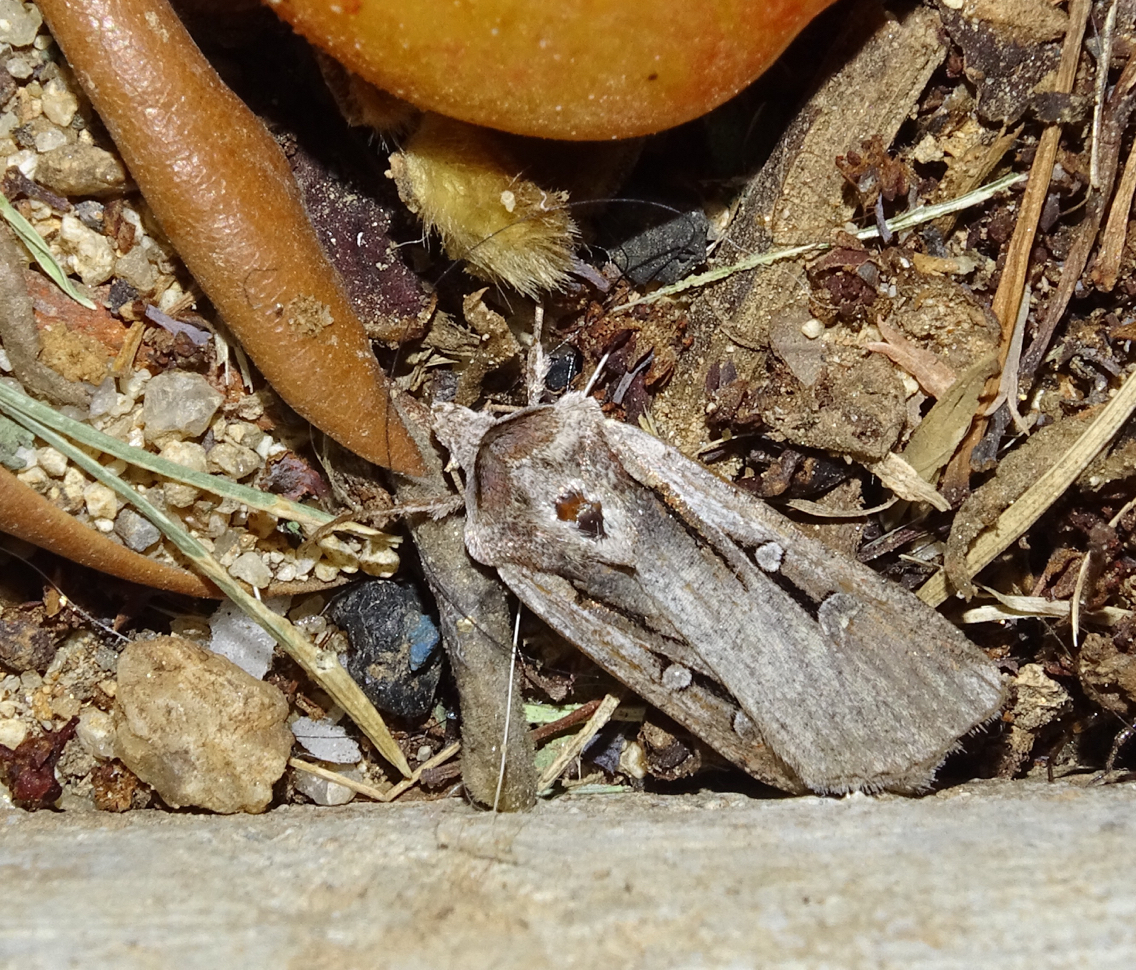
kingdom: Animalia
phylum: Arthropoda
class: Insecta
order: Lepidoptera
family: Noctuidae
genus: Hemieuxoa
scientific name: Hemieuxoa rudens
